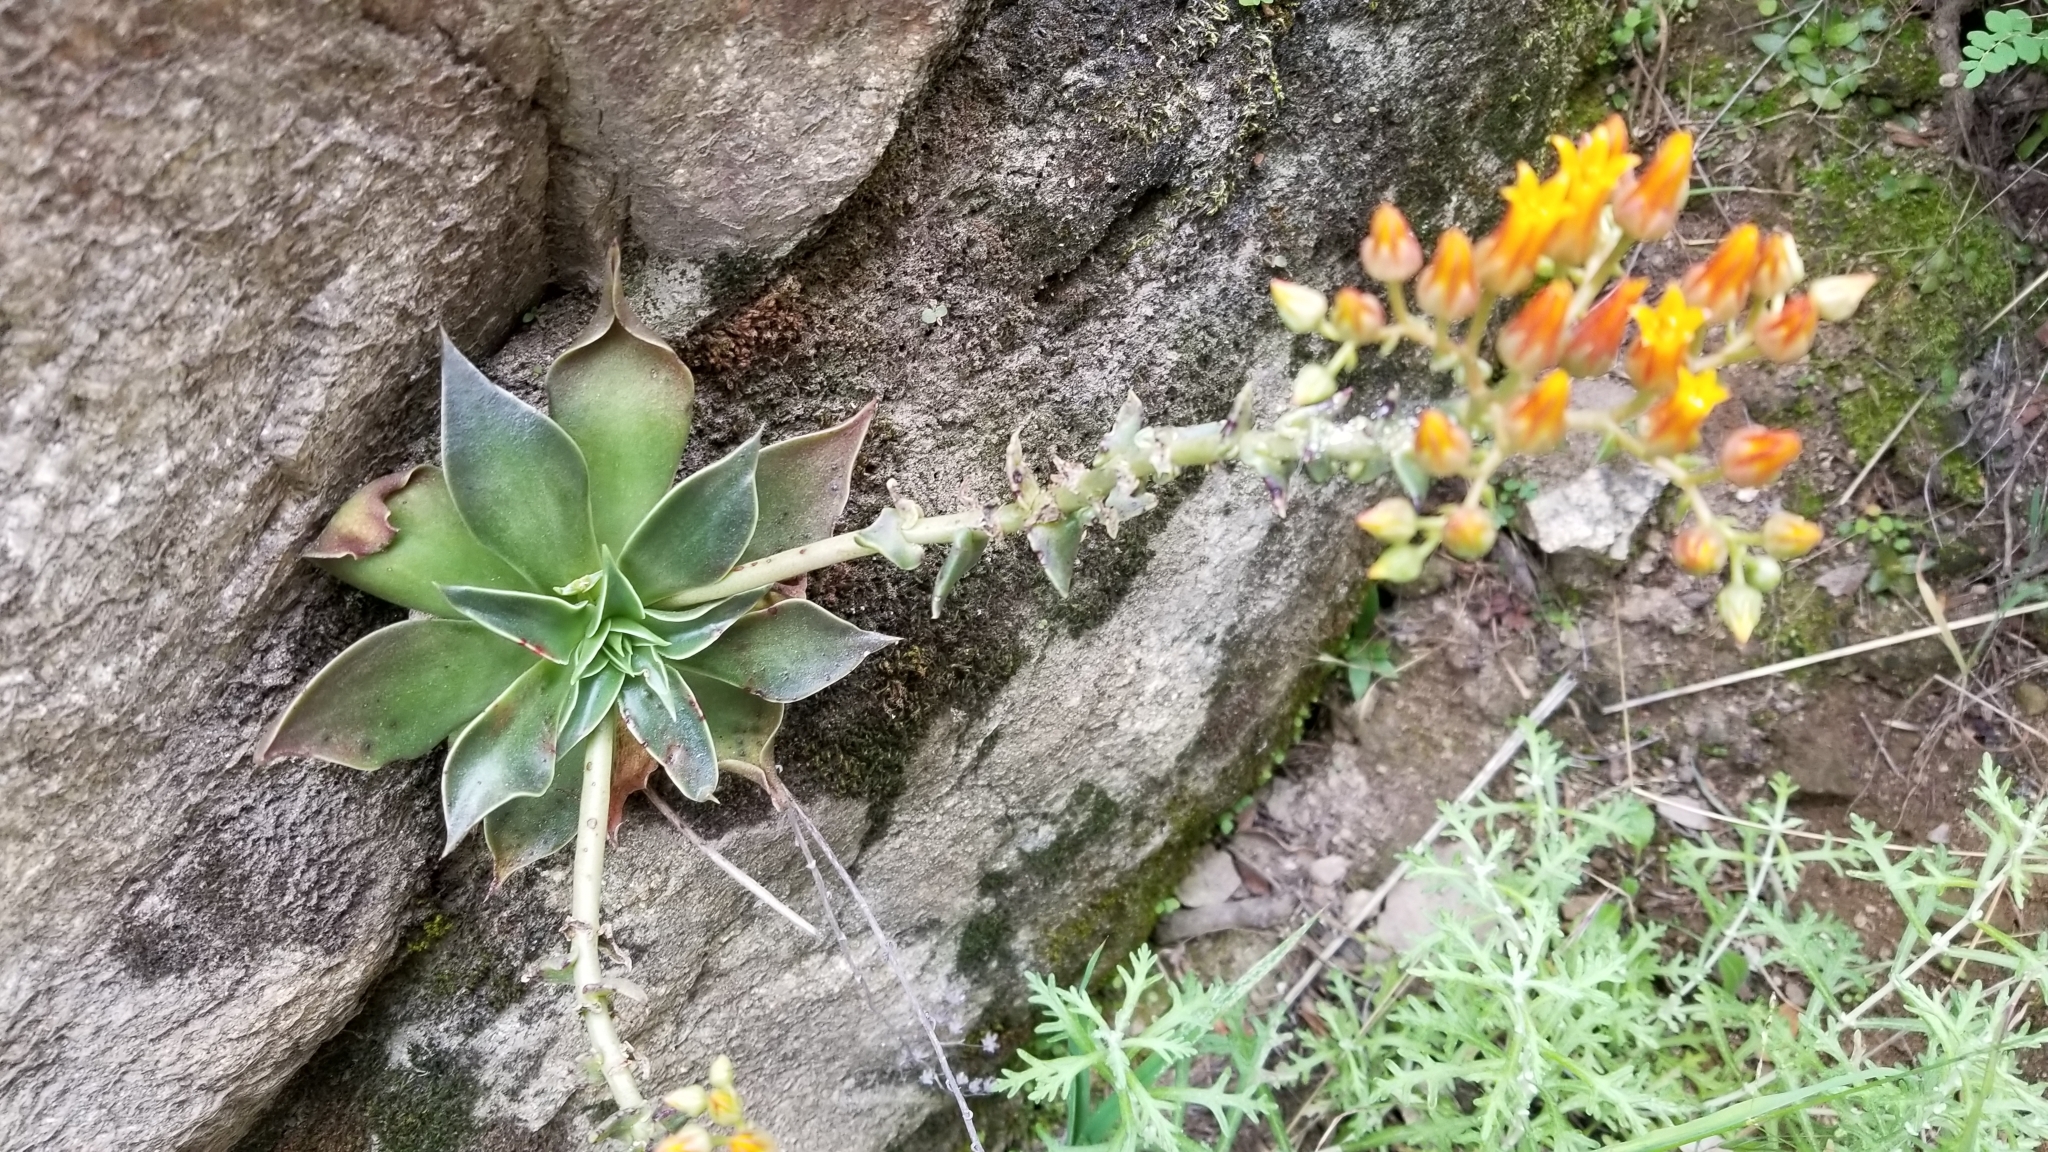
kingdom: Plantae
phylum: Tracheophyta
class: Magnoliopsida
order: Saxifragales
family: Crassulaceae
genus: Dudleya
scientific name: Dudleya cymosa
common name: Canyon dudleya
